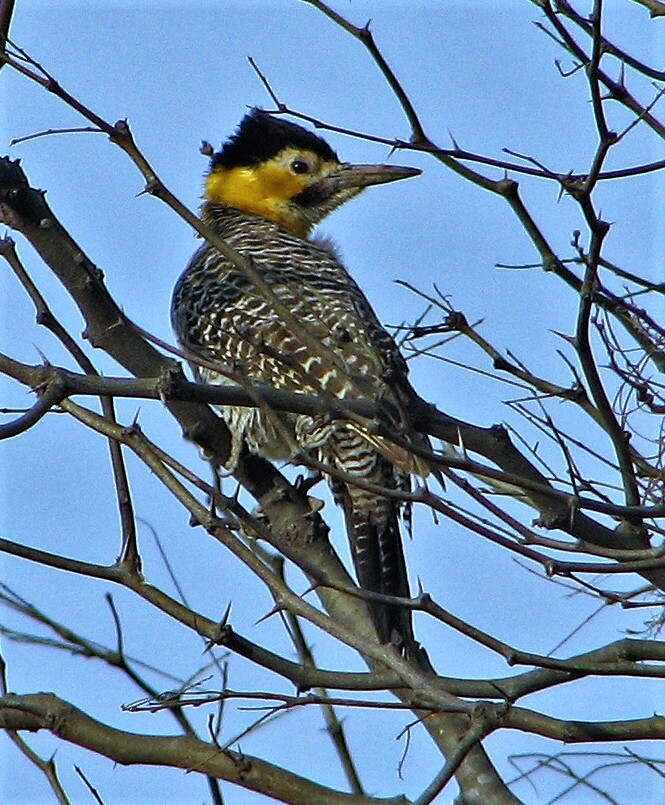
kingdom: Animalia
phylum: Chordata
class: Aves
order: Piciformes
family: Picidae
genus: Colaptes
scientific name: Colaptes campestris
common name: Campo flicker
